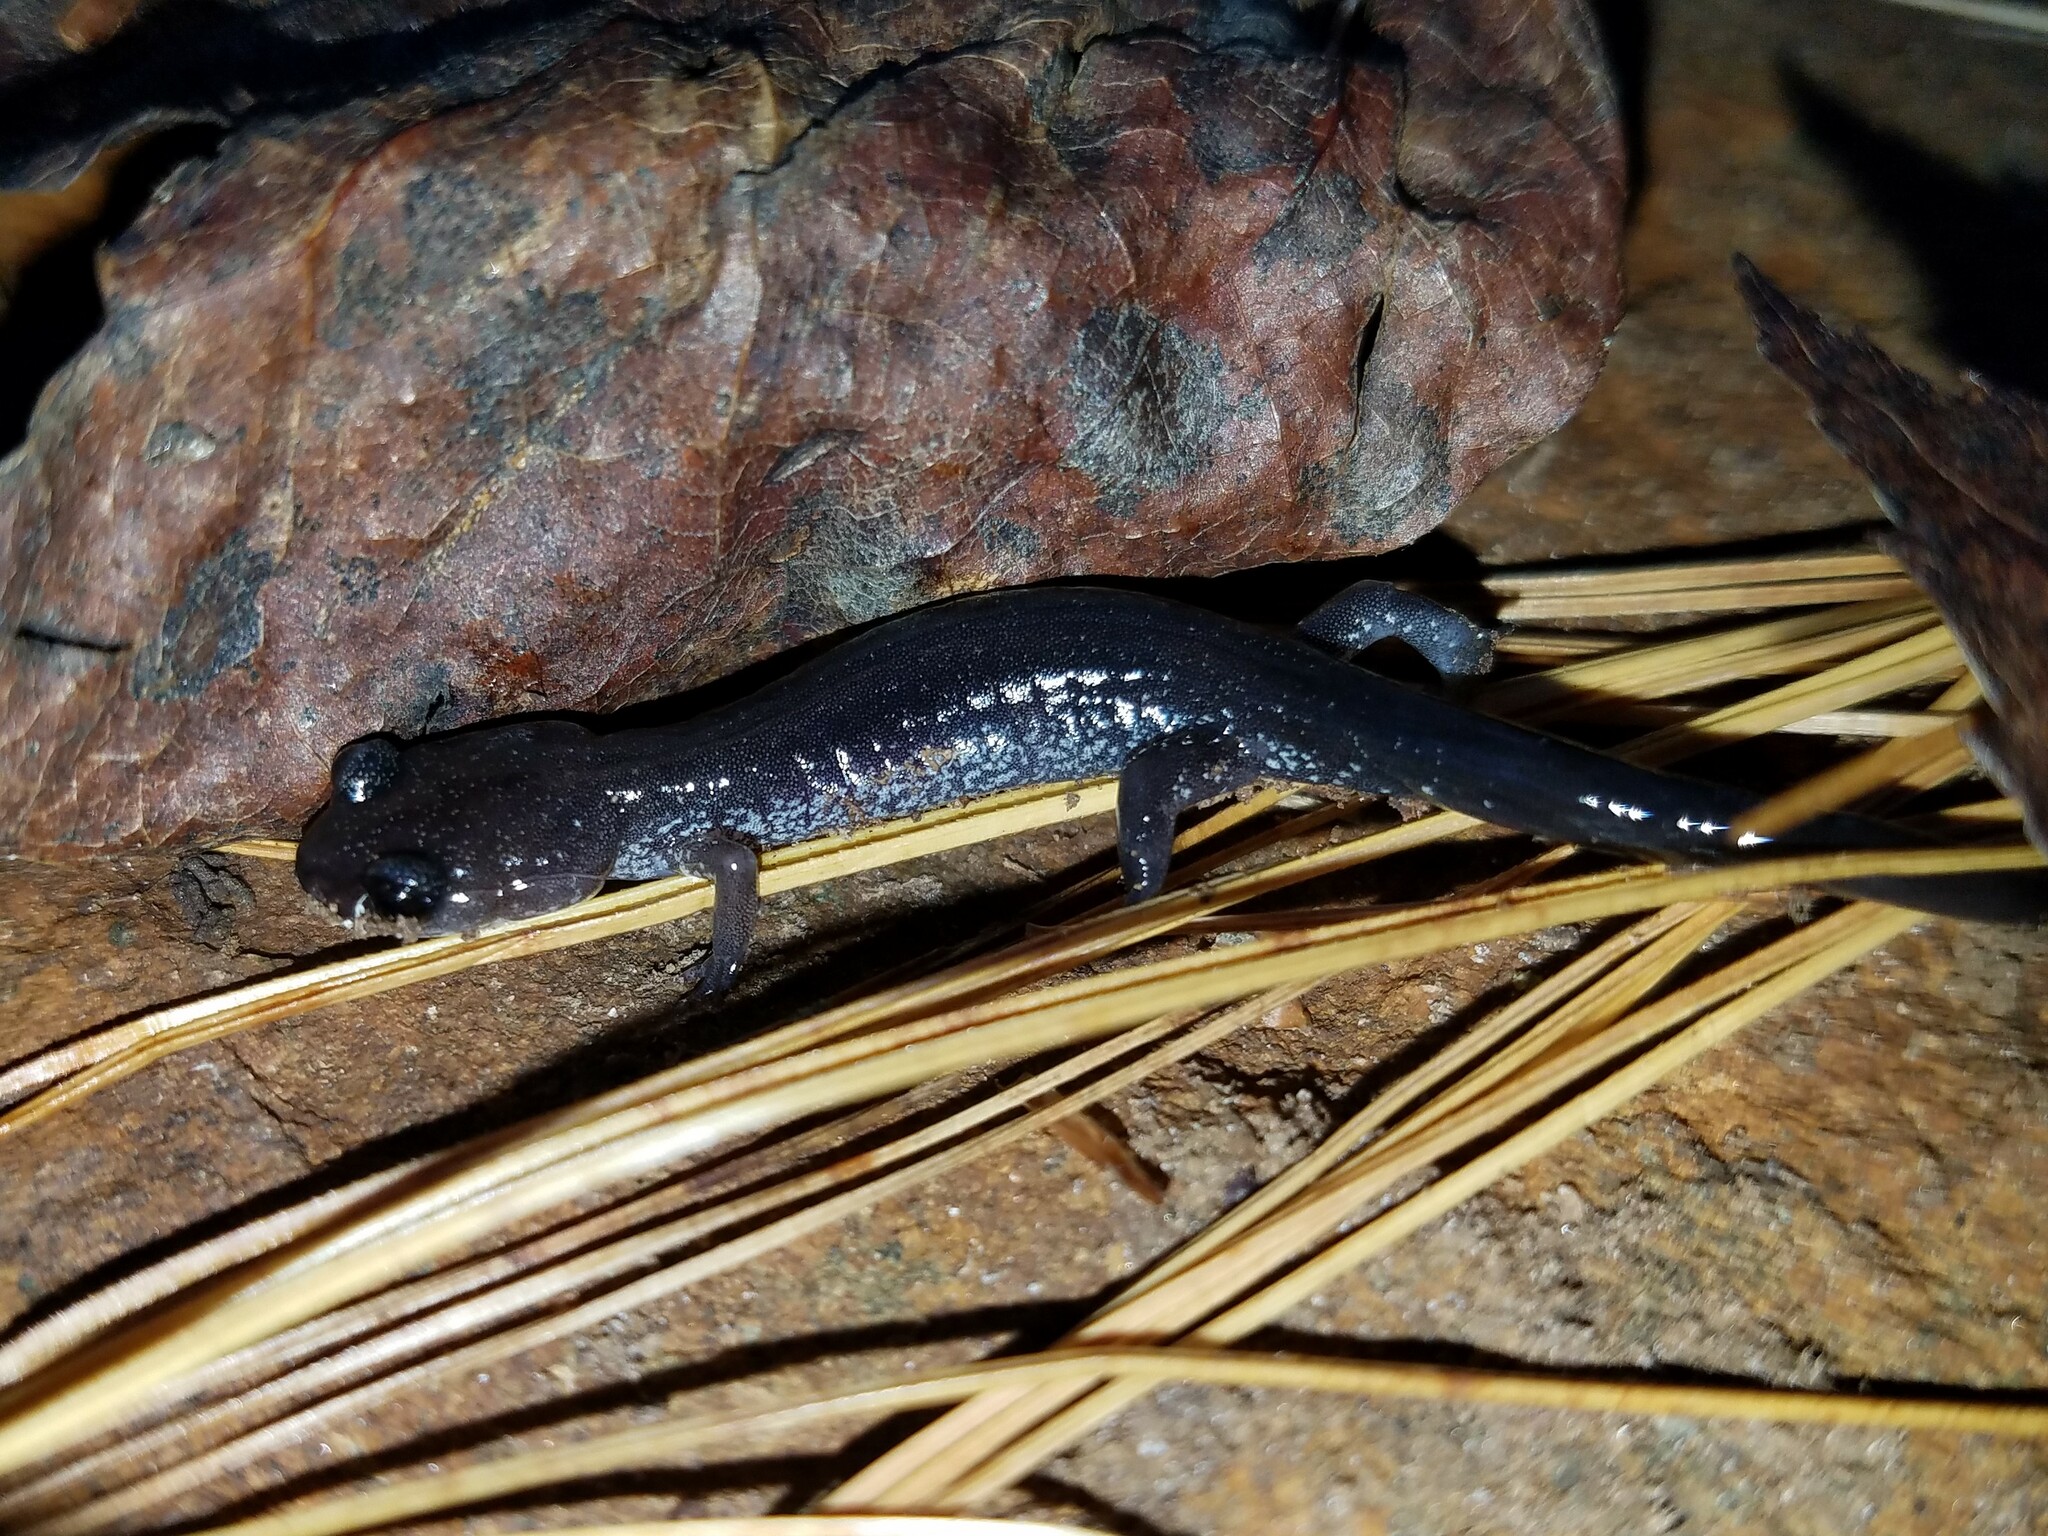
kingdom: Animalia
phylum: Chordata
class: Amphibia
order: Caudata
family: Plethodontidae
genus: Plethodon
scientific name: Plethodon chattahoochee
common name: Chattahoochee slimy salamander
